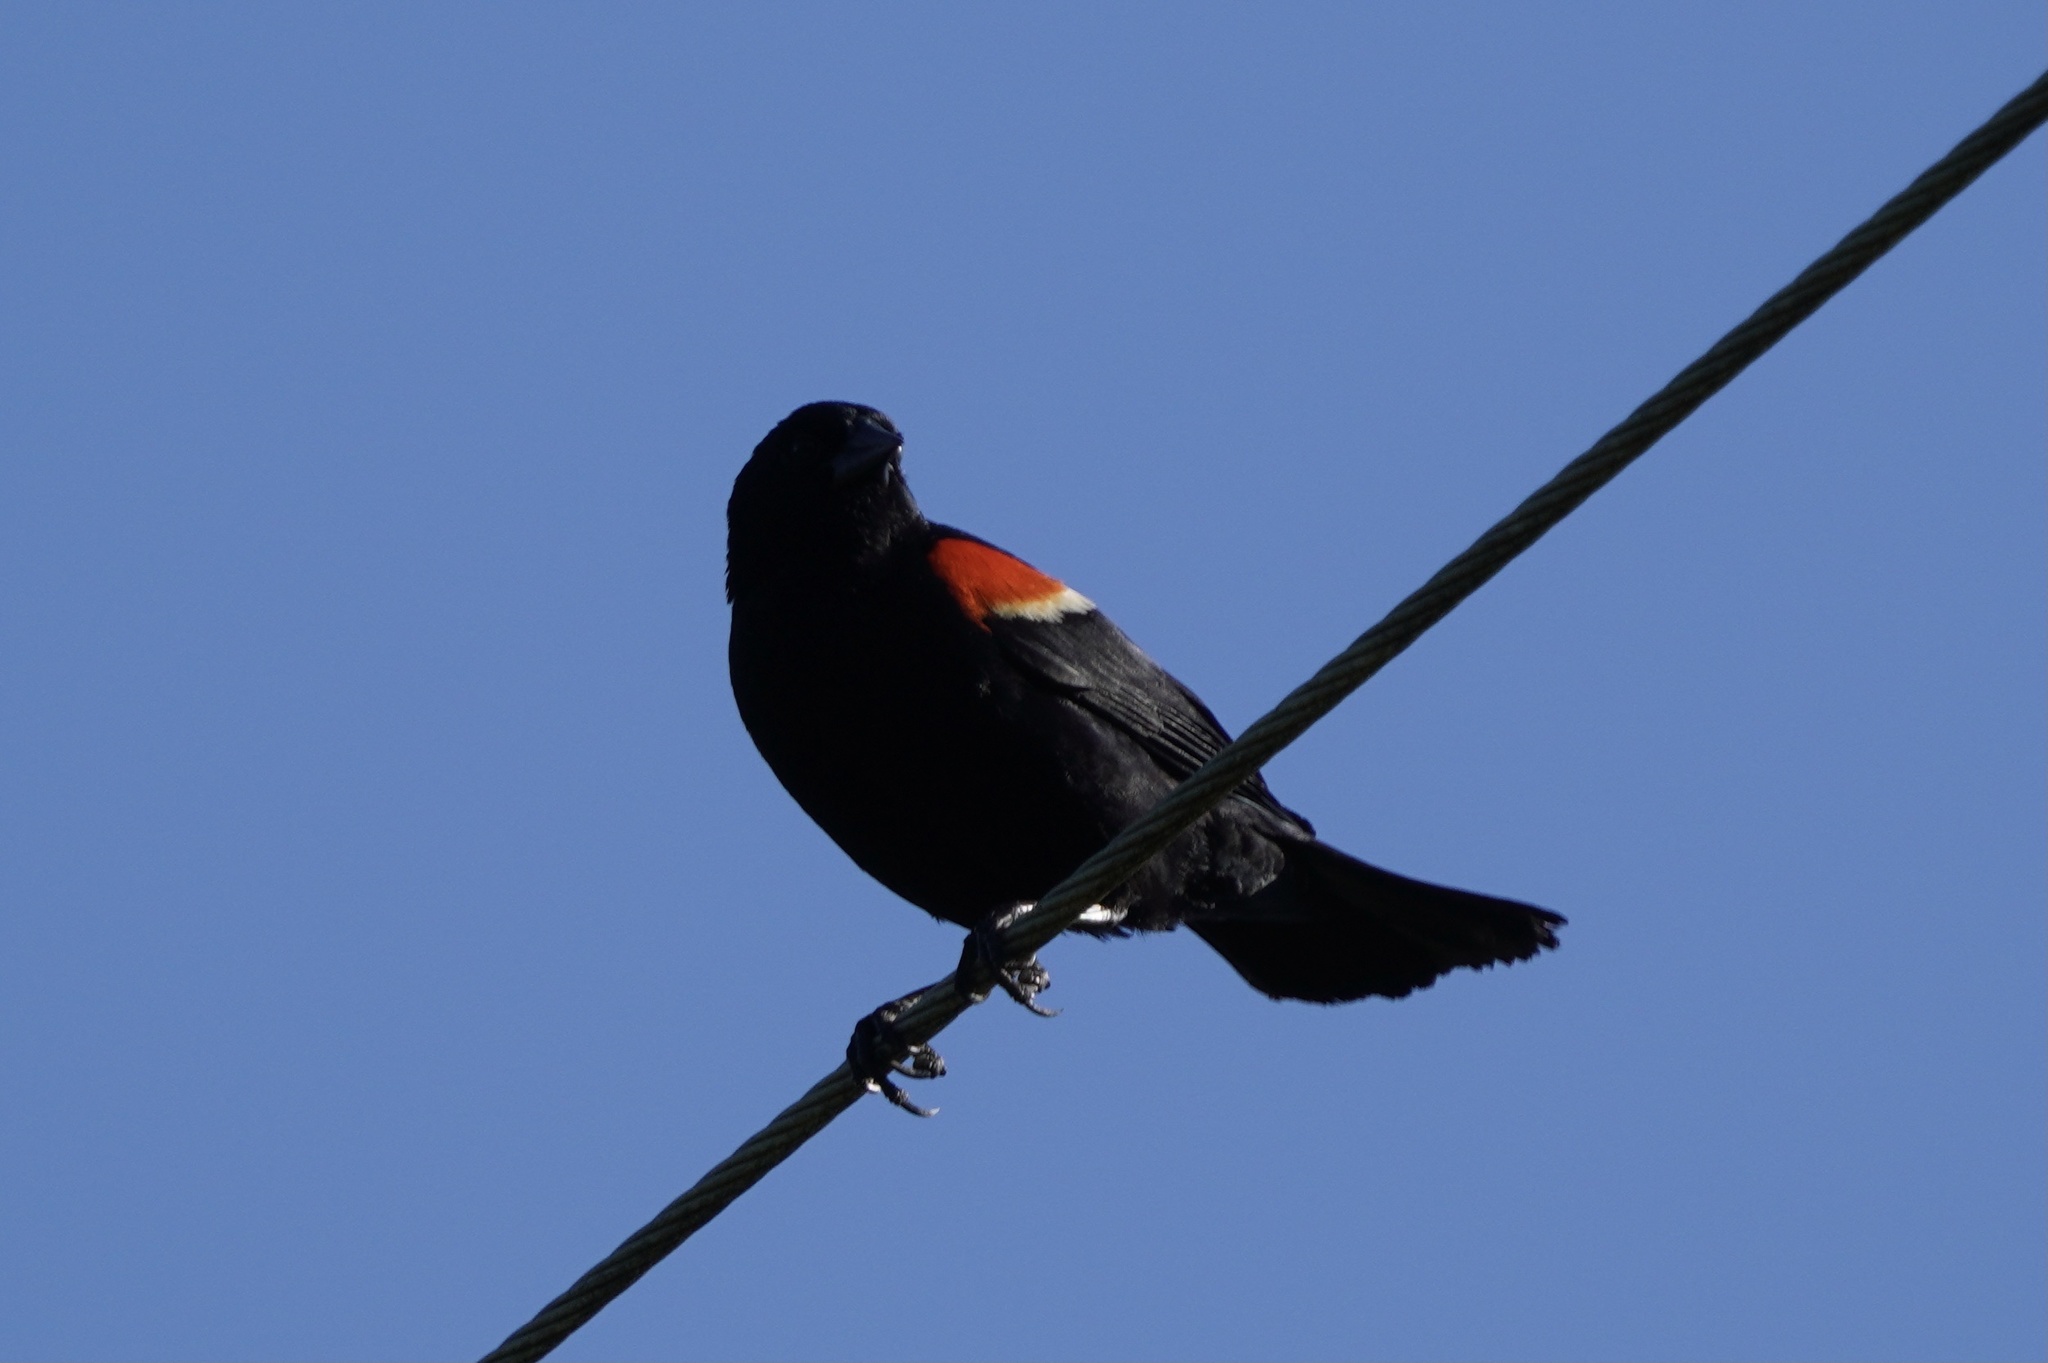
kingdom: Animalia
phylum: Chordata
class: Aves
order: Passeriformes
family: Icteridae
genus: Agelaius
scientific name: Agelaius phoeniceus
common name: Red-winged blackbird
